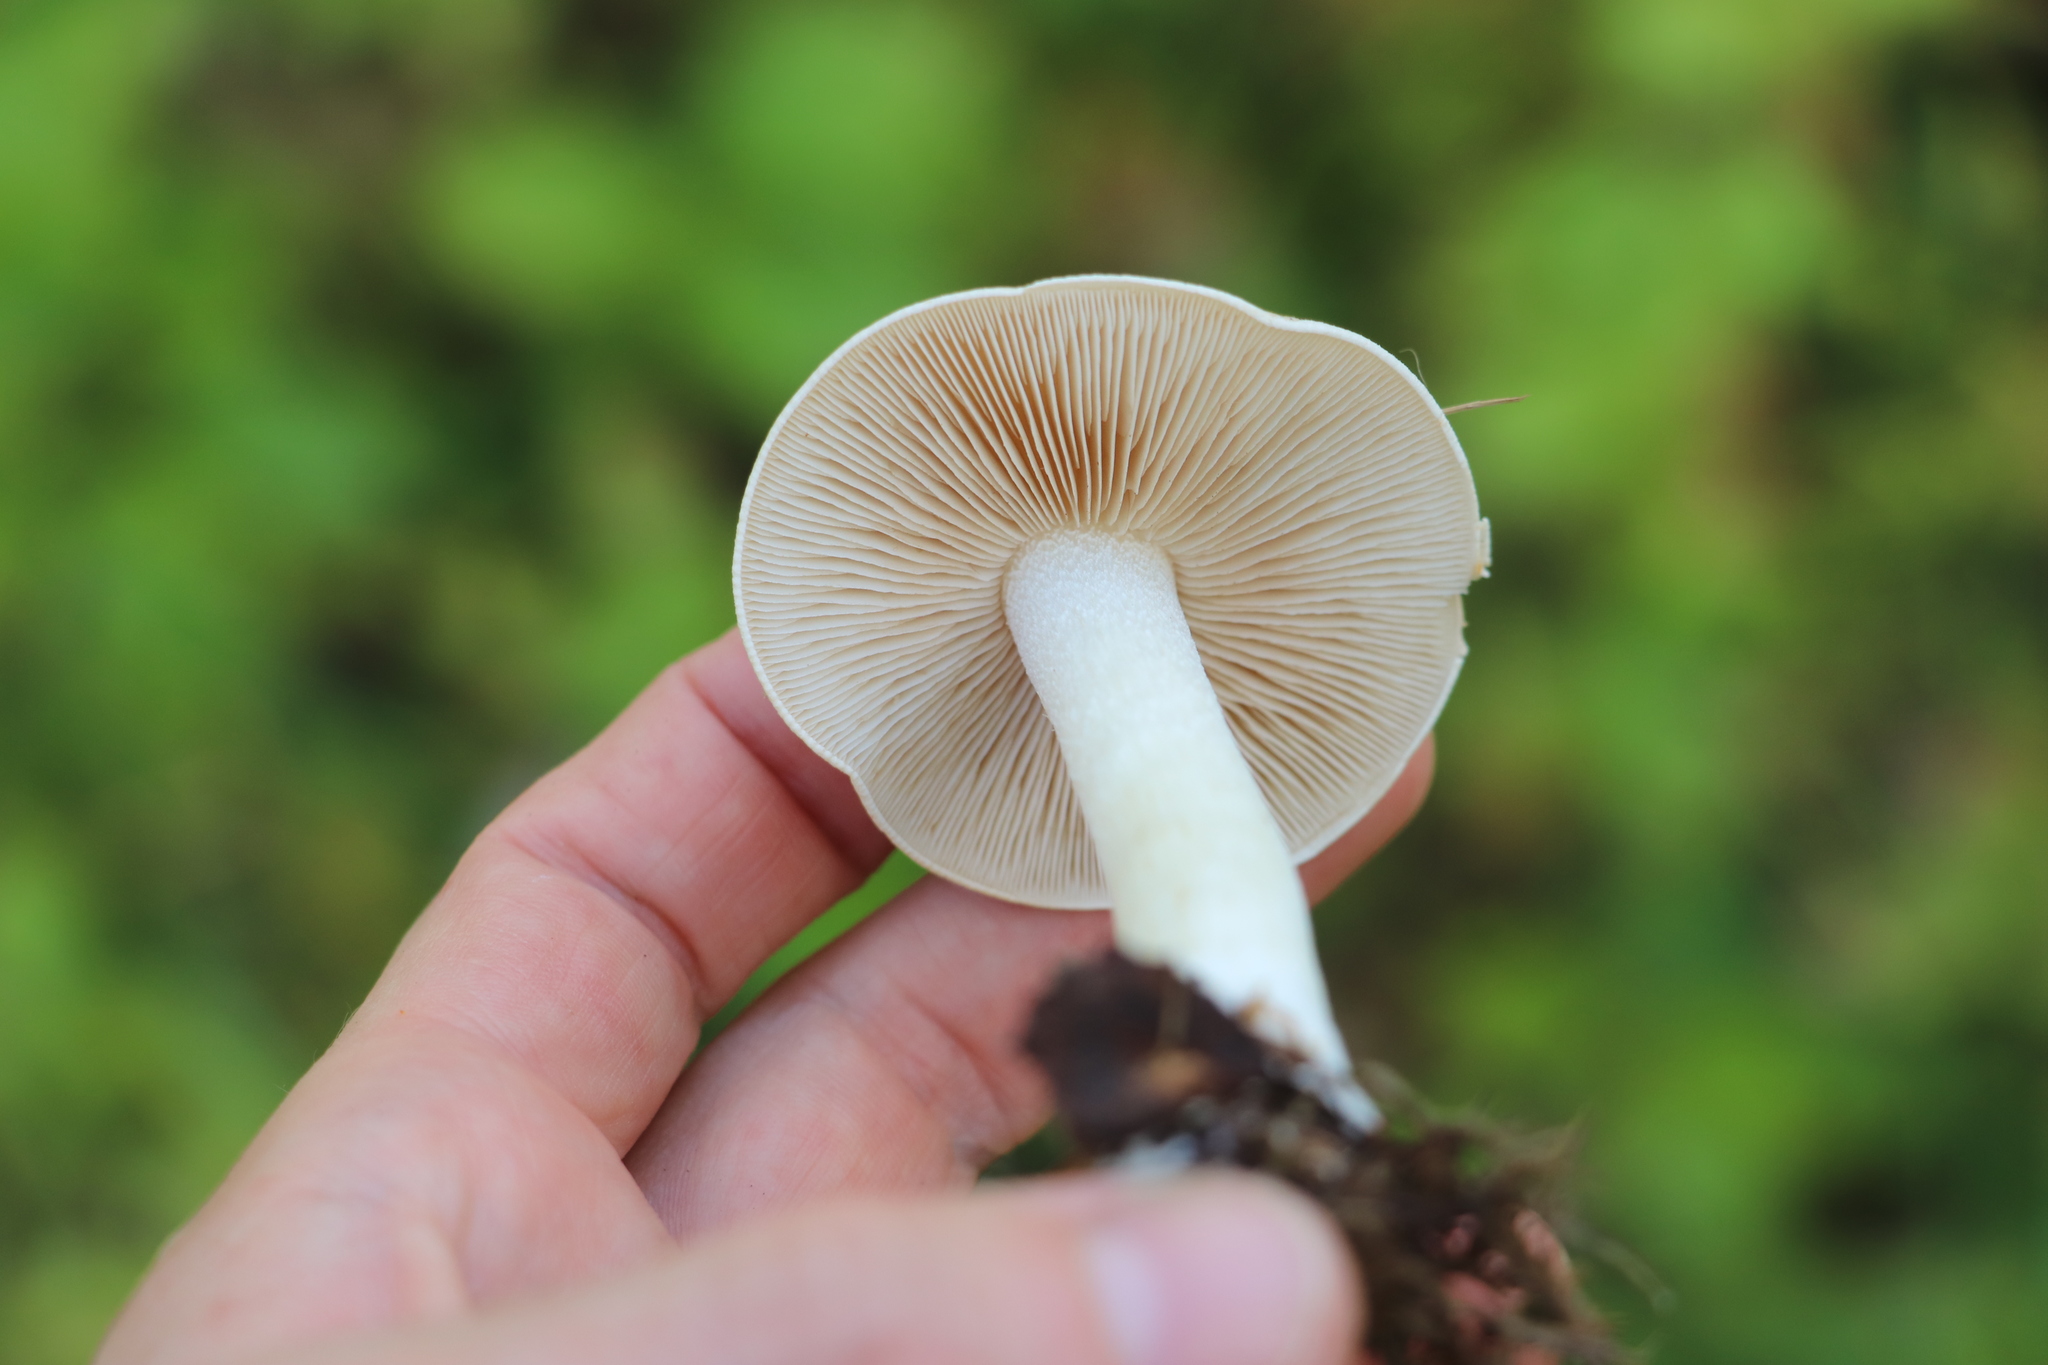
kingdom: Fungi
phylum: Basidiomycota
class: Agaricomycetes
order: Agaricales
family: Hymenogastraceae
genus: Hebeloma
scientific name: Hebeloma leucosarx
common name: Birch poisonpie
